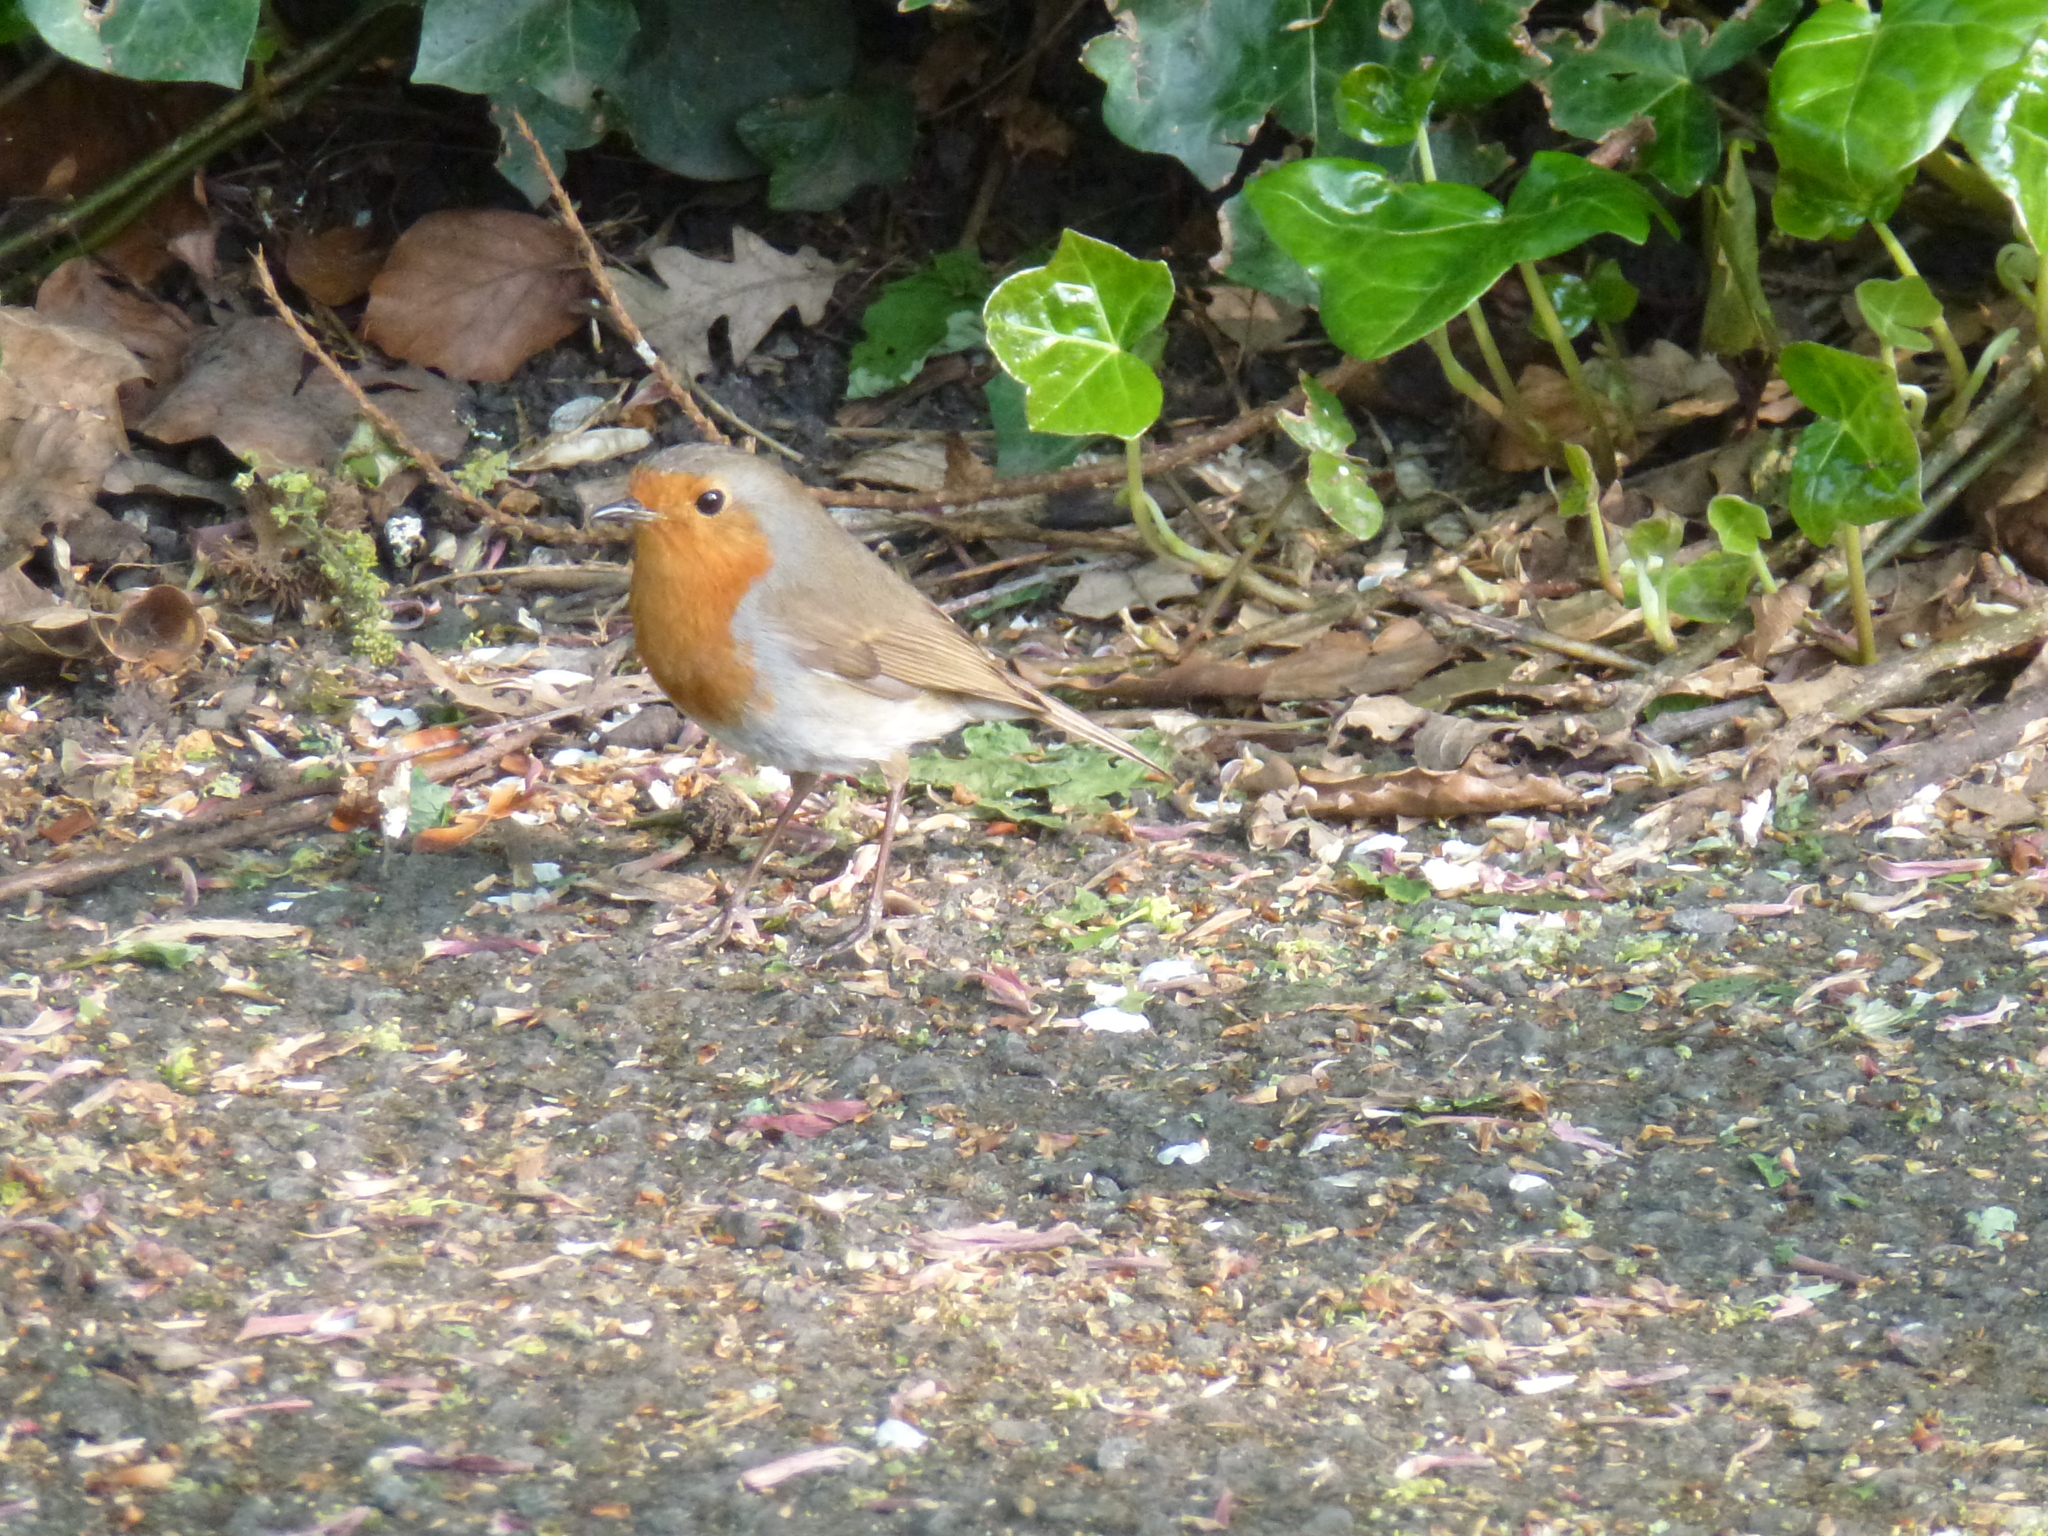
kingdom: Animalia
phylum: Chordata
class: Aves
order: Passeriformes
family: Muscicapidae
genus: Erithacus
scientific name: Erithacus rubecula
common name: European robin
